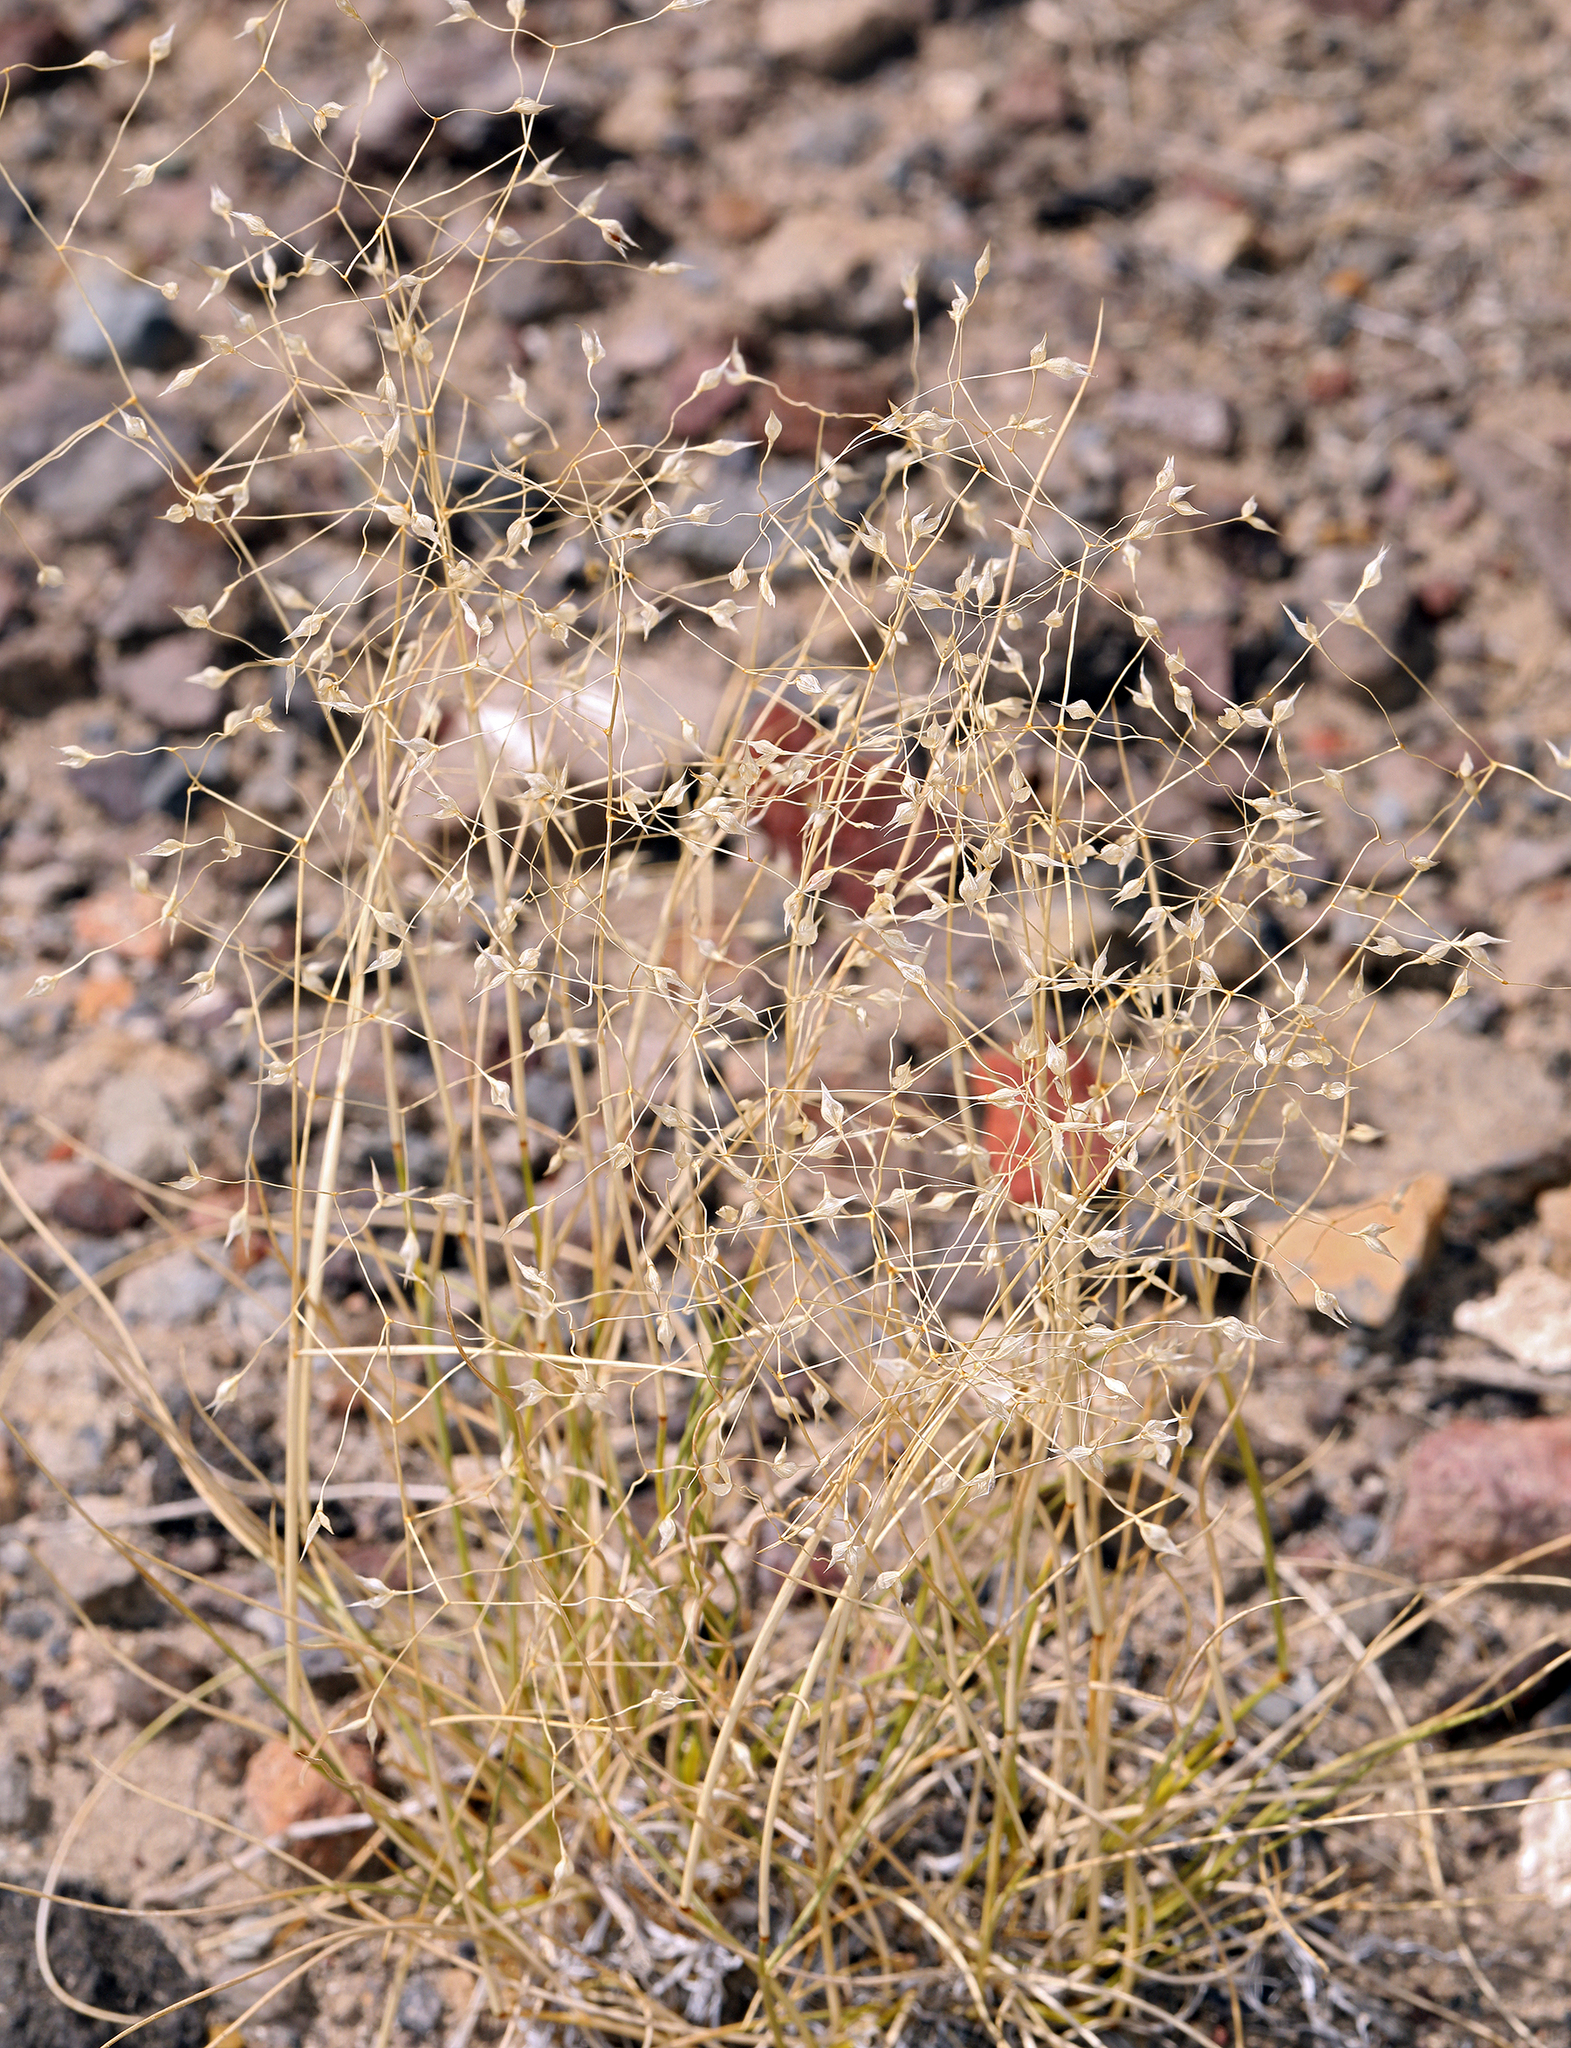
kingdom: Plantae
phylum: Tracheophyta
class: Liliopsida
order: Poales
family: Poaceae
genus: Eriocoma
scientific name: Eriocoma hymenoides
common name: Indian mountain ricegrass
